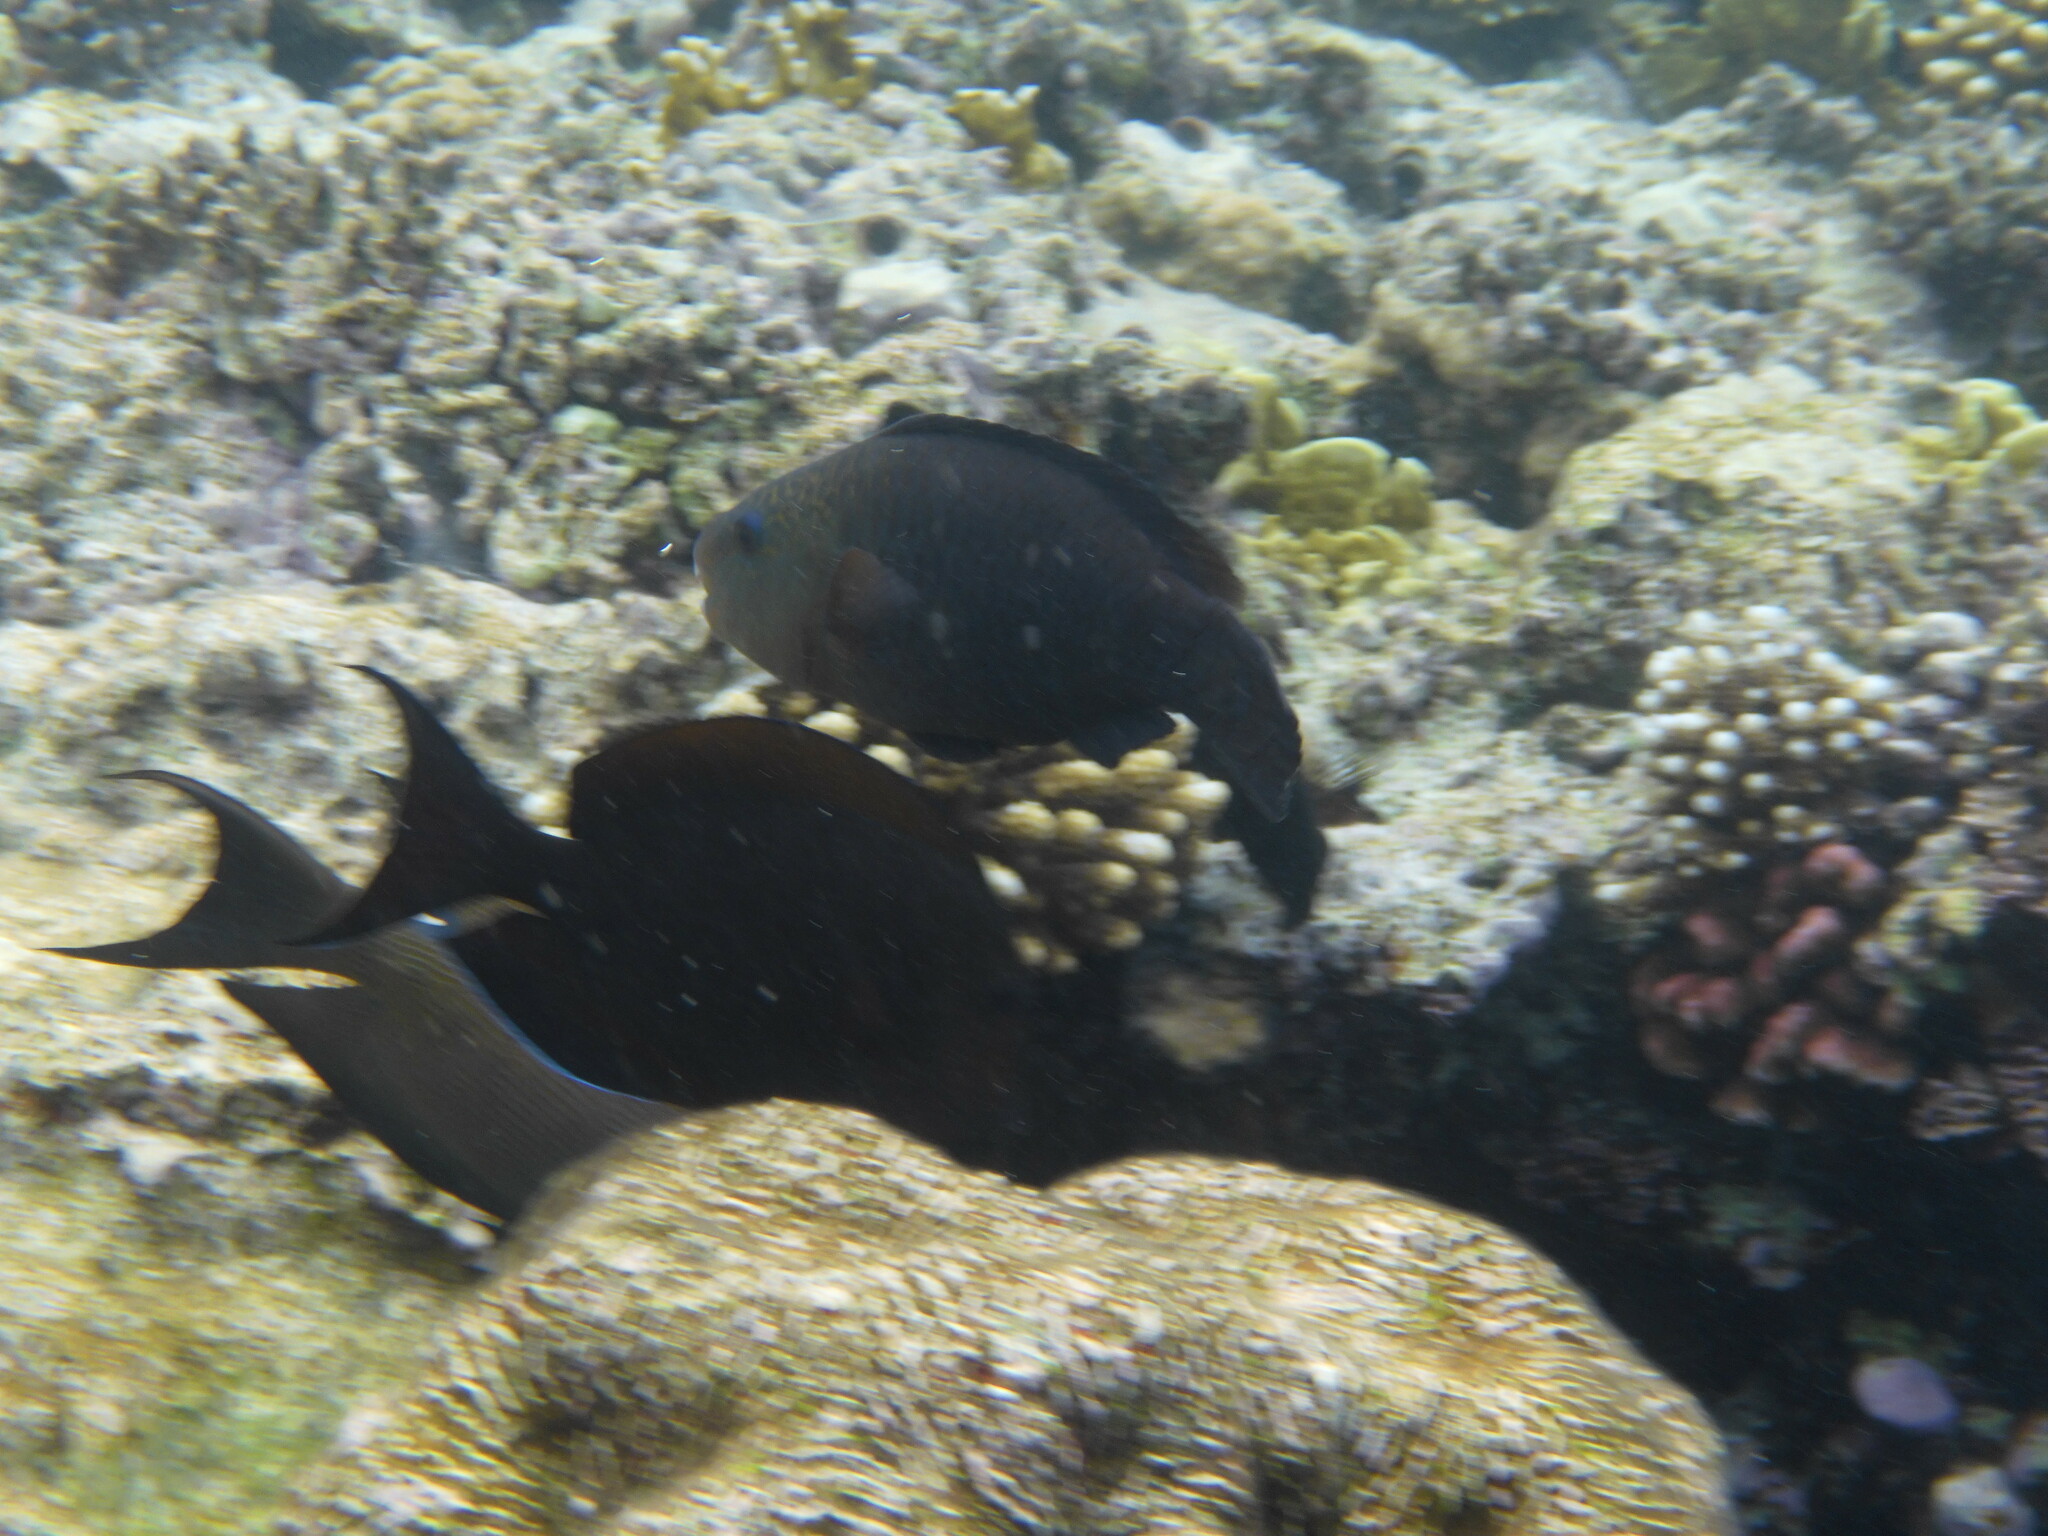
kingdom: Animalia
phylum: Chordata
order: Perciformes
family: Scaridae
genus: Chlorurus
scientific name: Chlorurus sordidus
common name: Bullethead parrotfish
